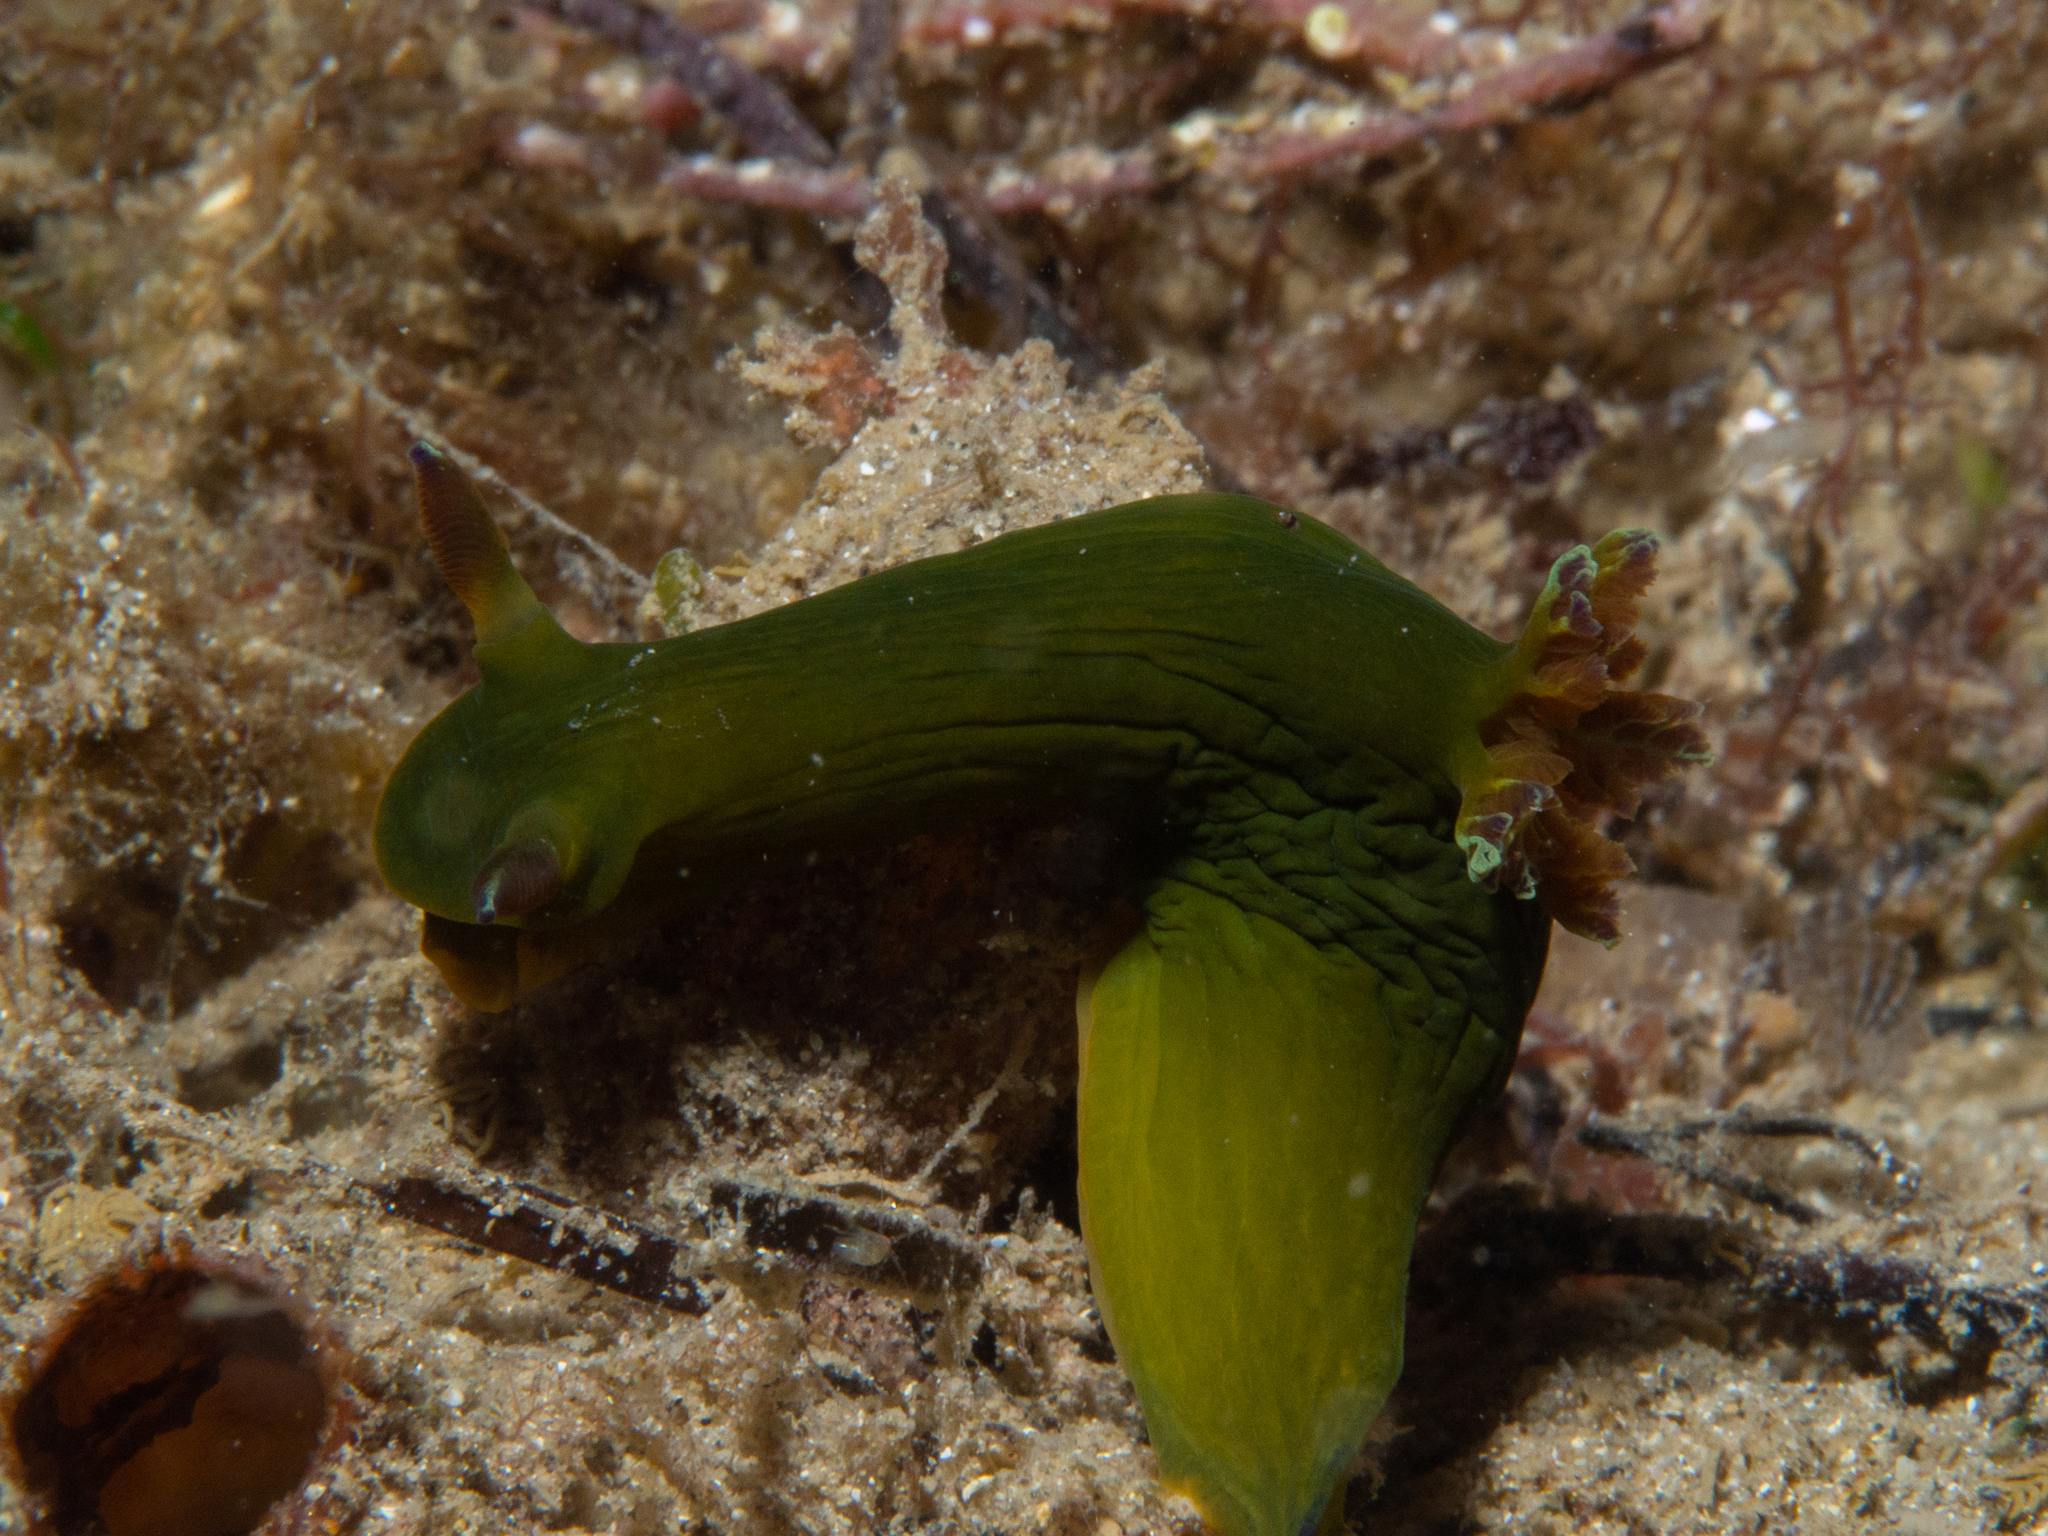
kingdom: Animalia
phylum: Mollusca
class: Gastropoda
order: Nudibranchia
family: Polyceridae
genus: Tambja
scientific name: Tambja dracomus
